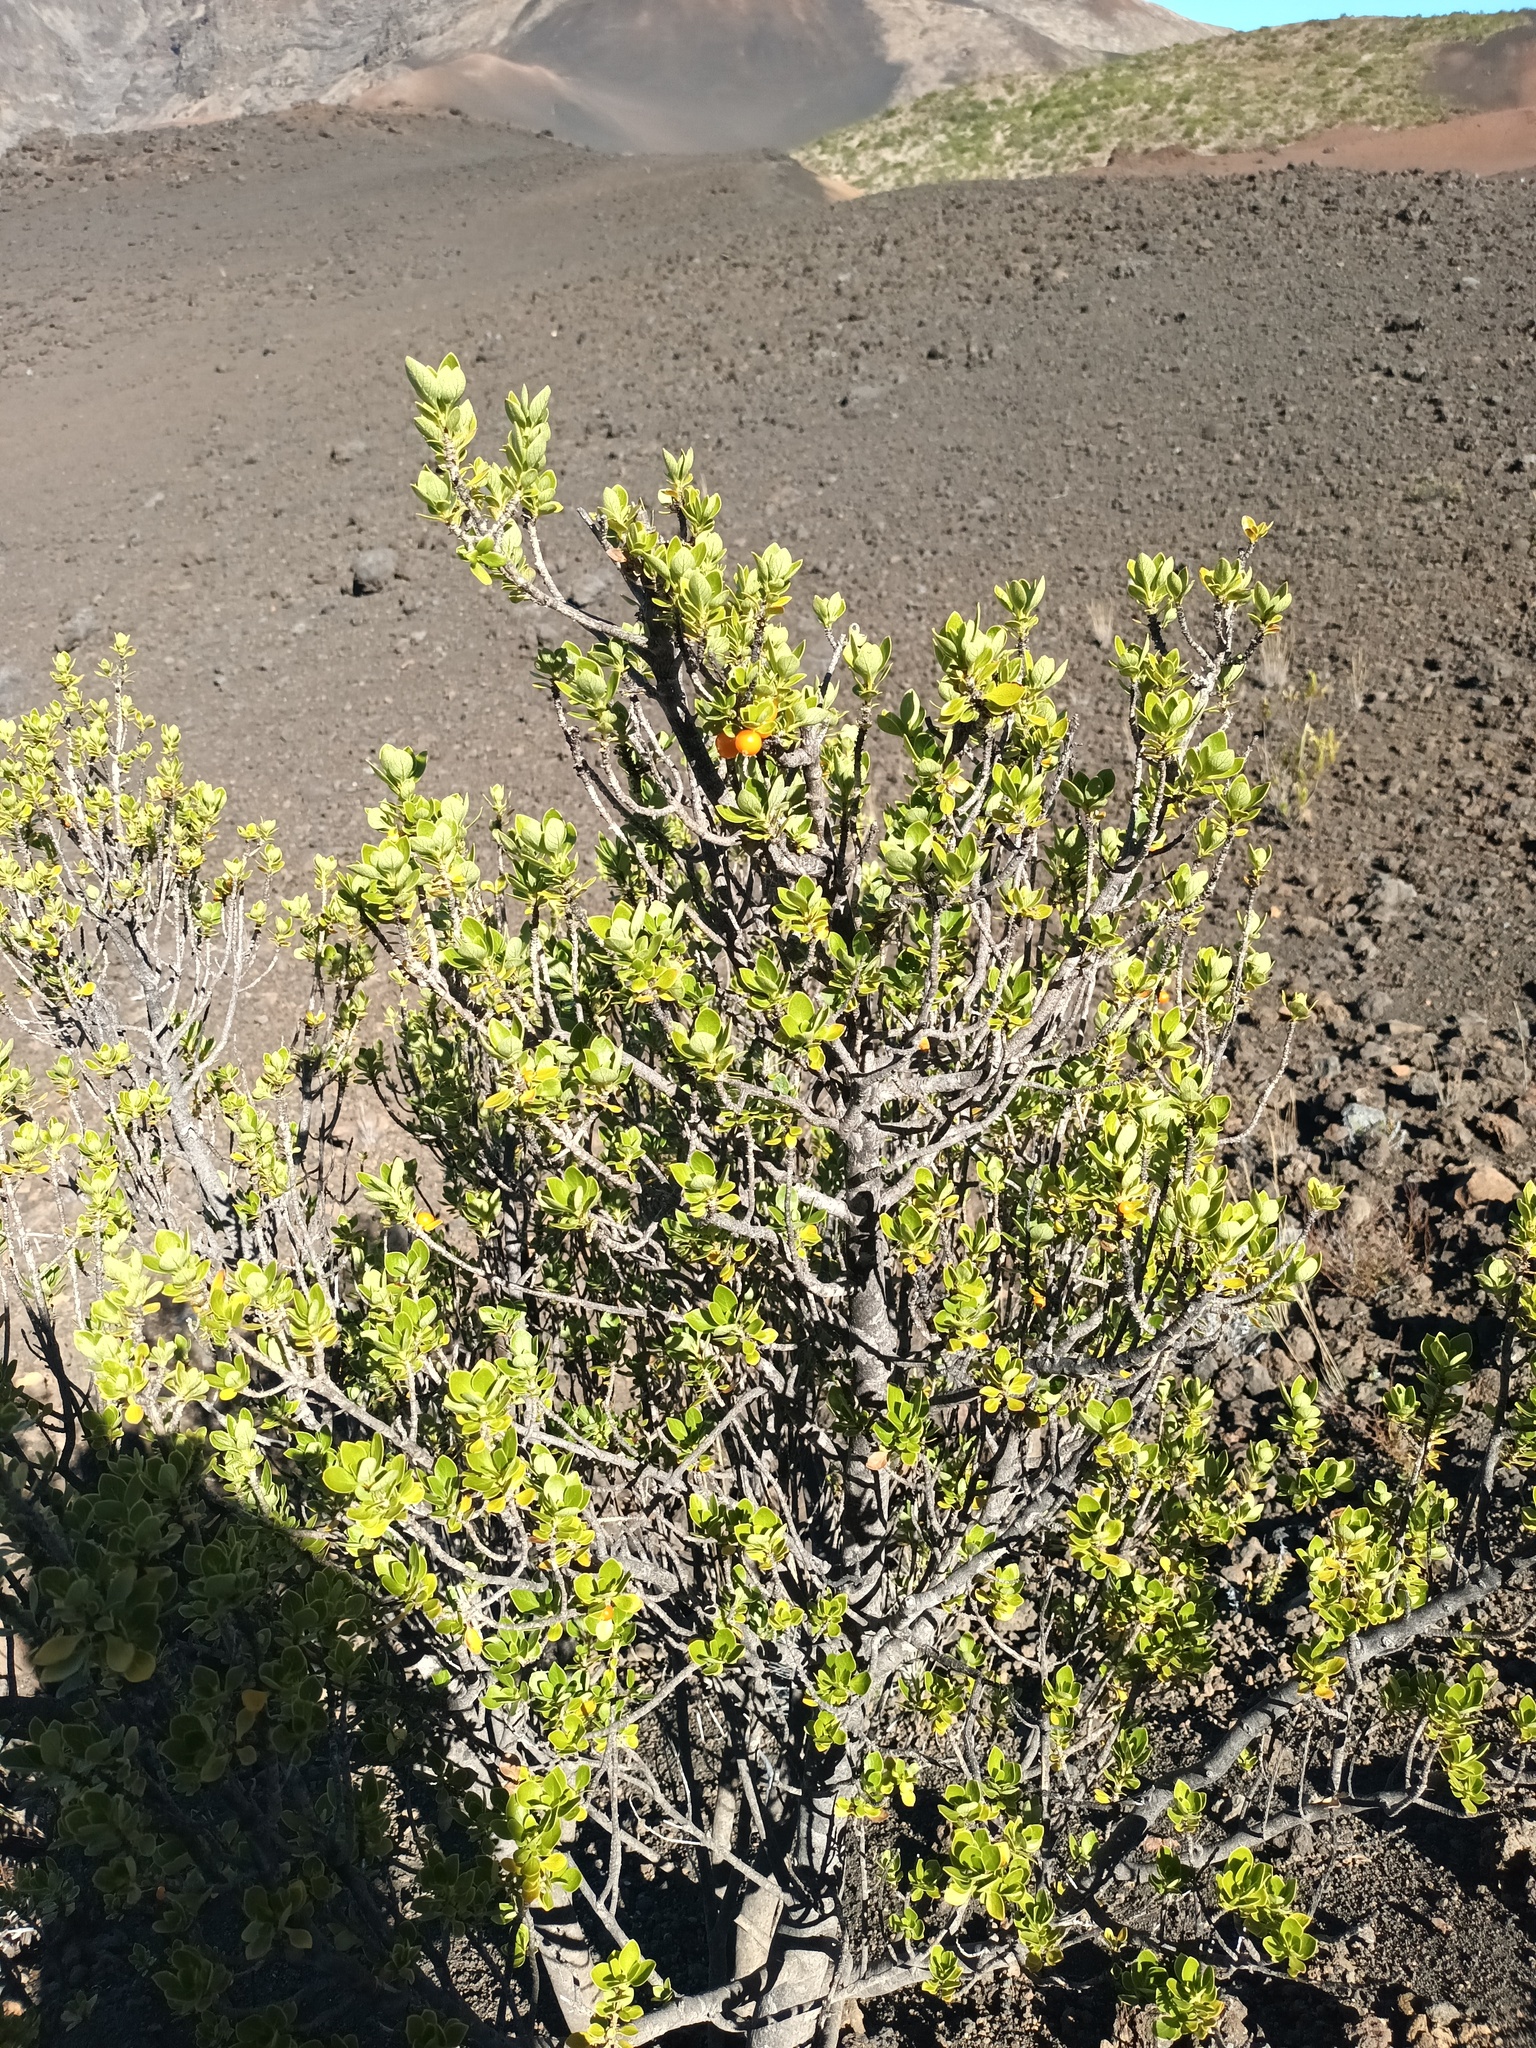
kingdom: Plantae
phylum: Tracheophyta
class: Magnoliopsida
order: Gentianales
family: Rubiaceae
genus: Coprosma
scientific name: Coprosma montana
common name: Alpine mirror plant
